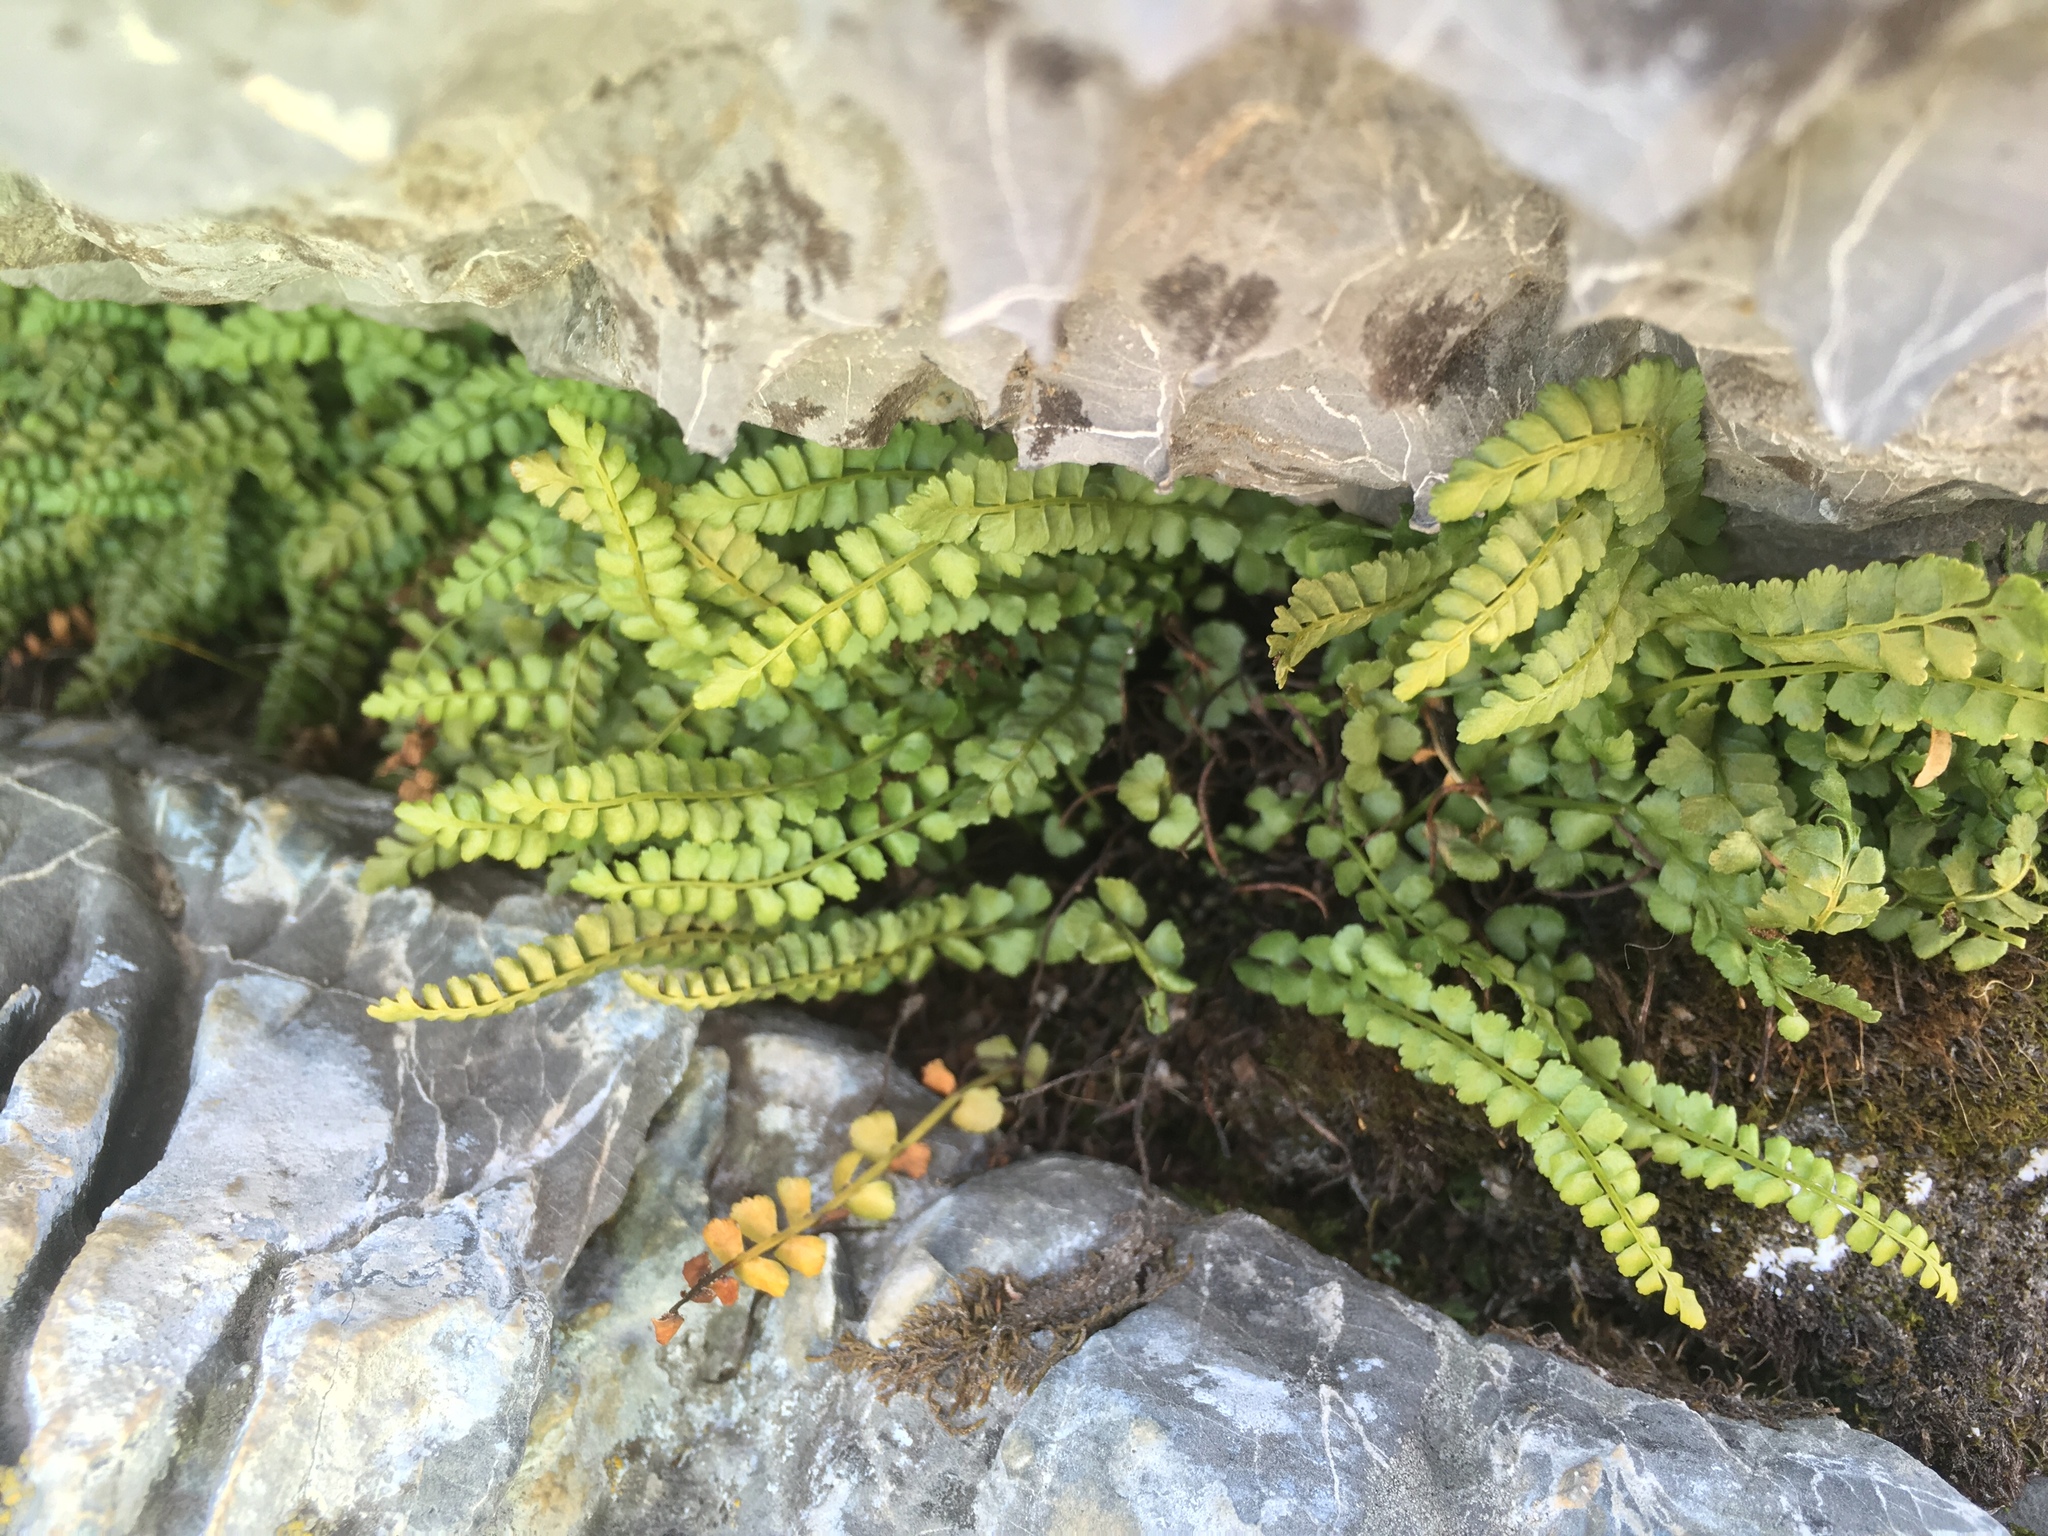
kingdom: Plantae
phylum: Tracheophyta
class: Polypodiopsida
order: Polypodiales
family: Aspleniaceae
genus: Asplenium
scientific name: Asplenium viride
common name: Green spleenwort
